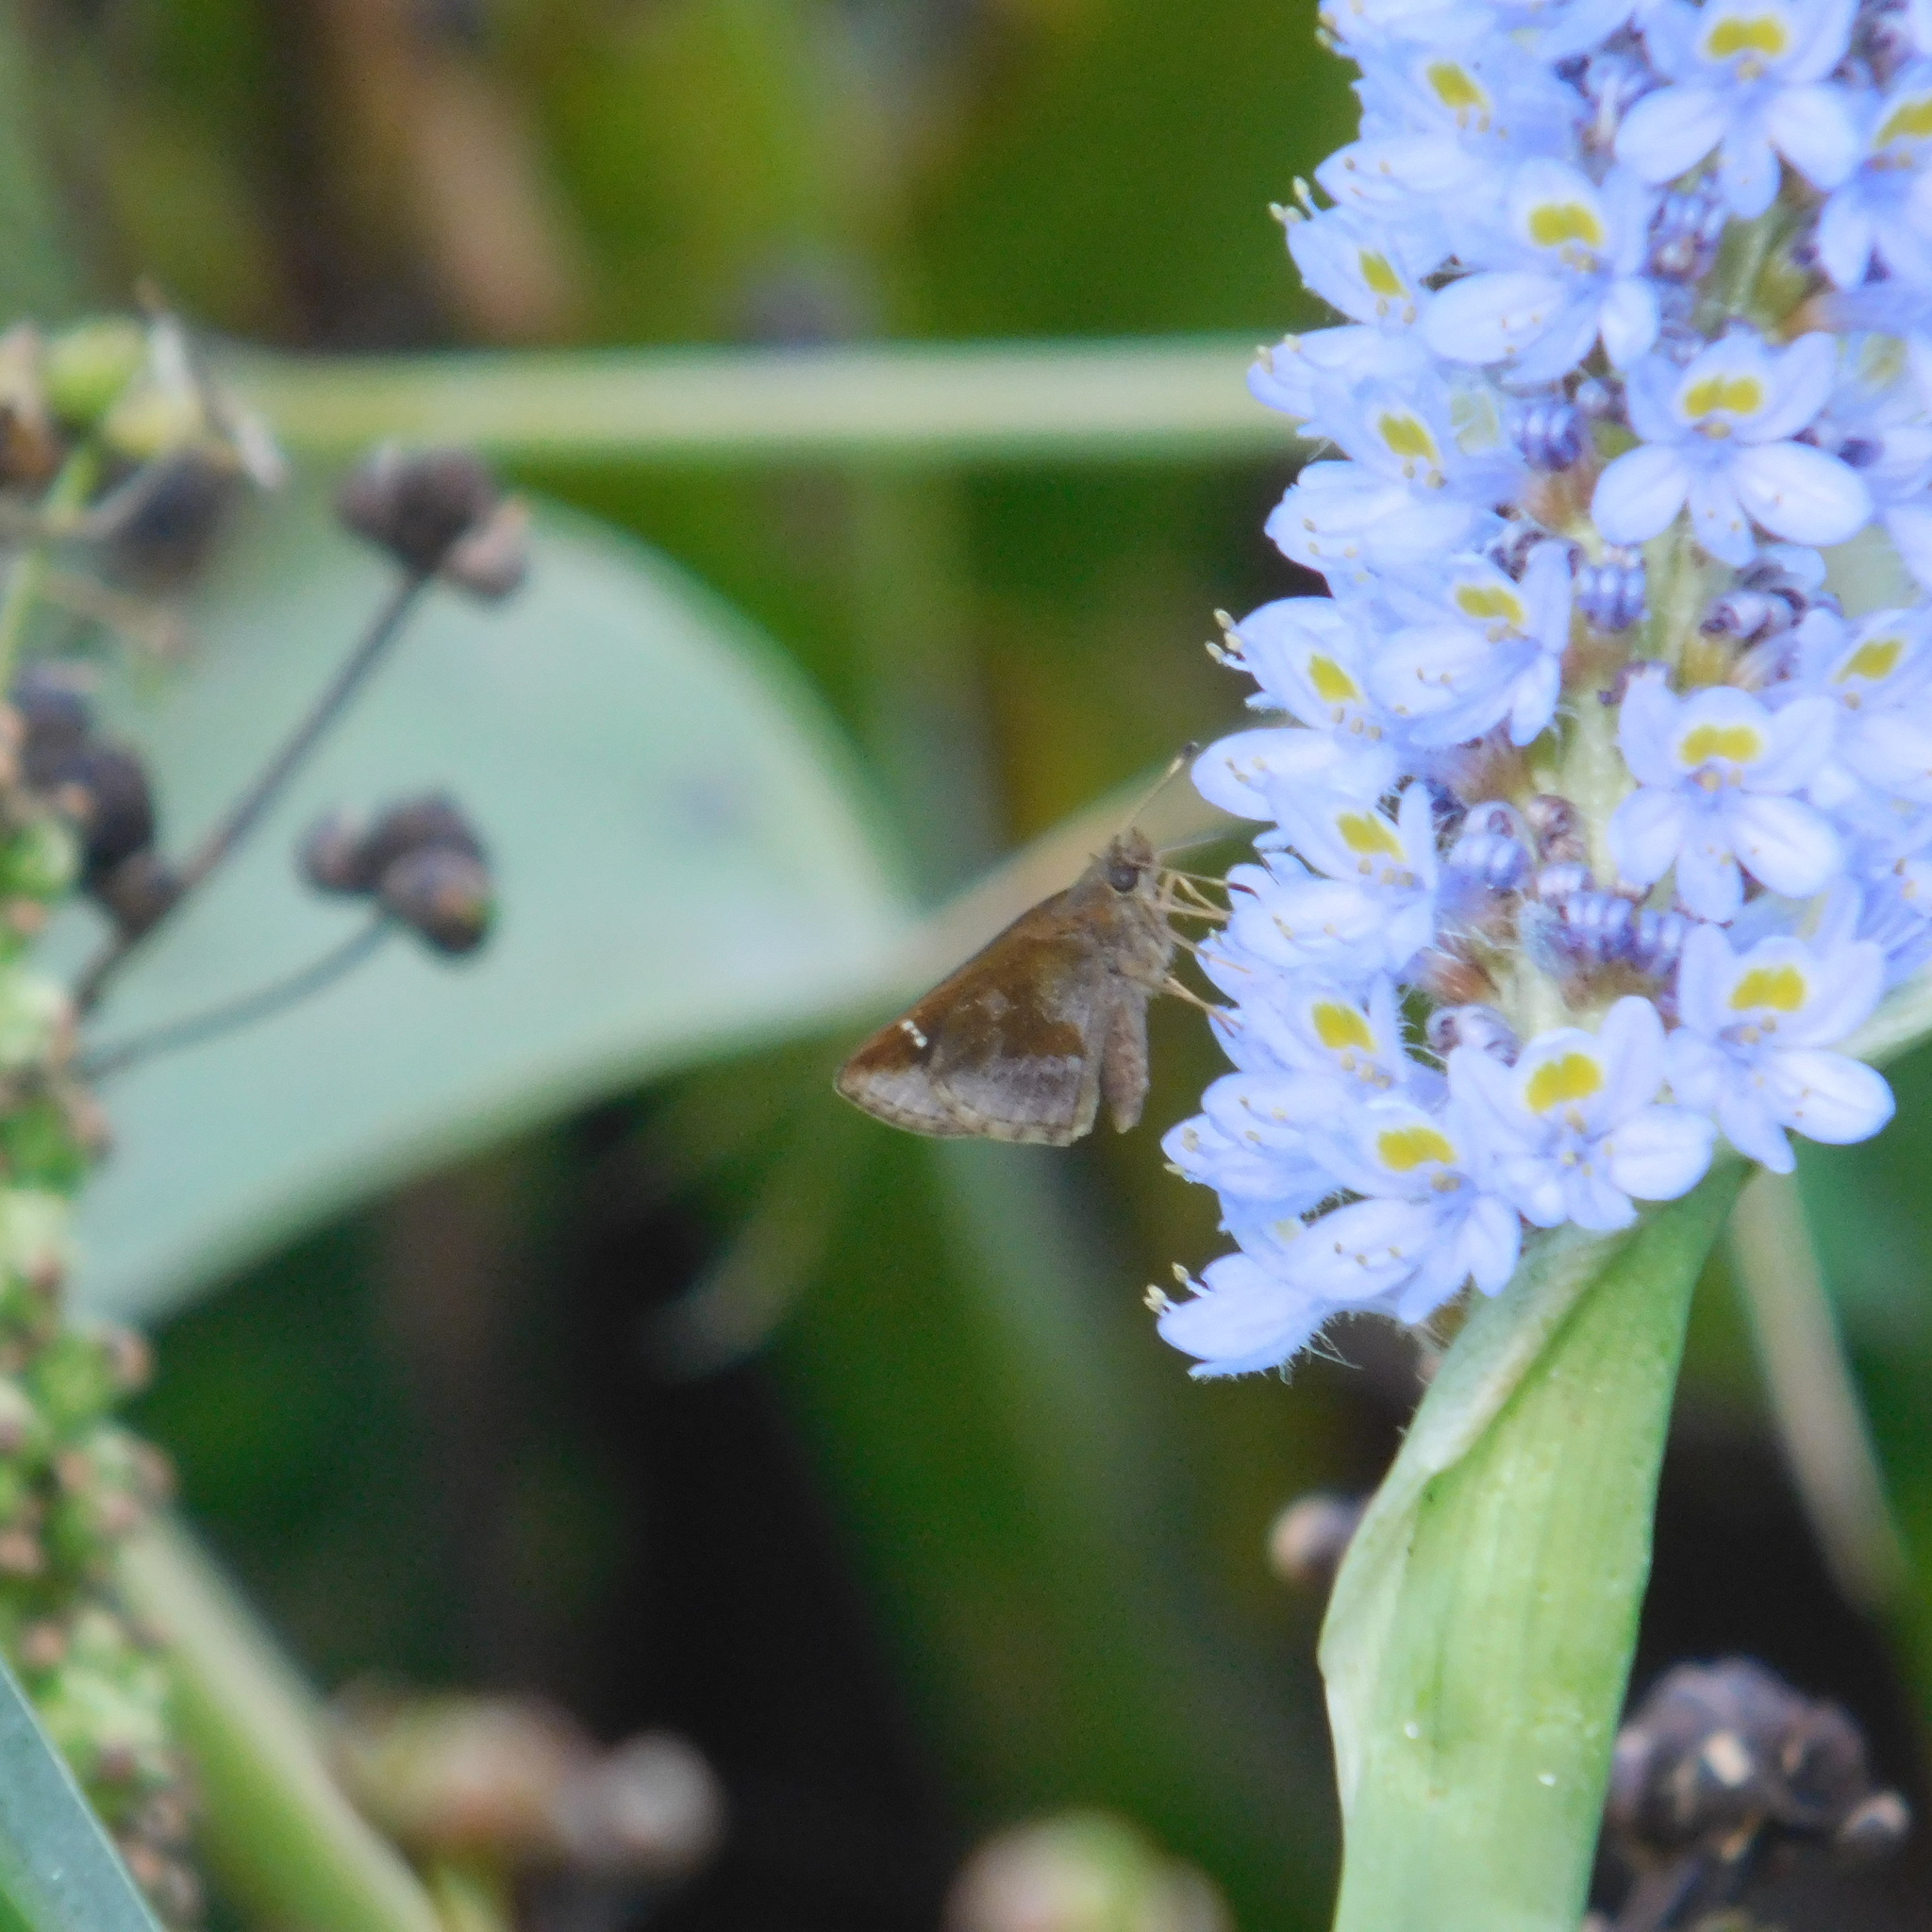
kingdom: Animalia
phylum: Arthropoda
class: Insecta
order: Lepidoptera
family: Hesperiidae
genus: Cymaenes
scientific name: Cymaenes
